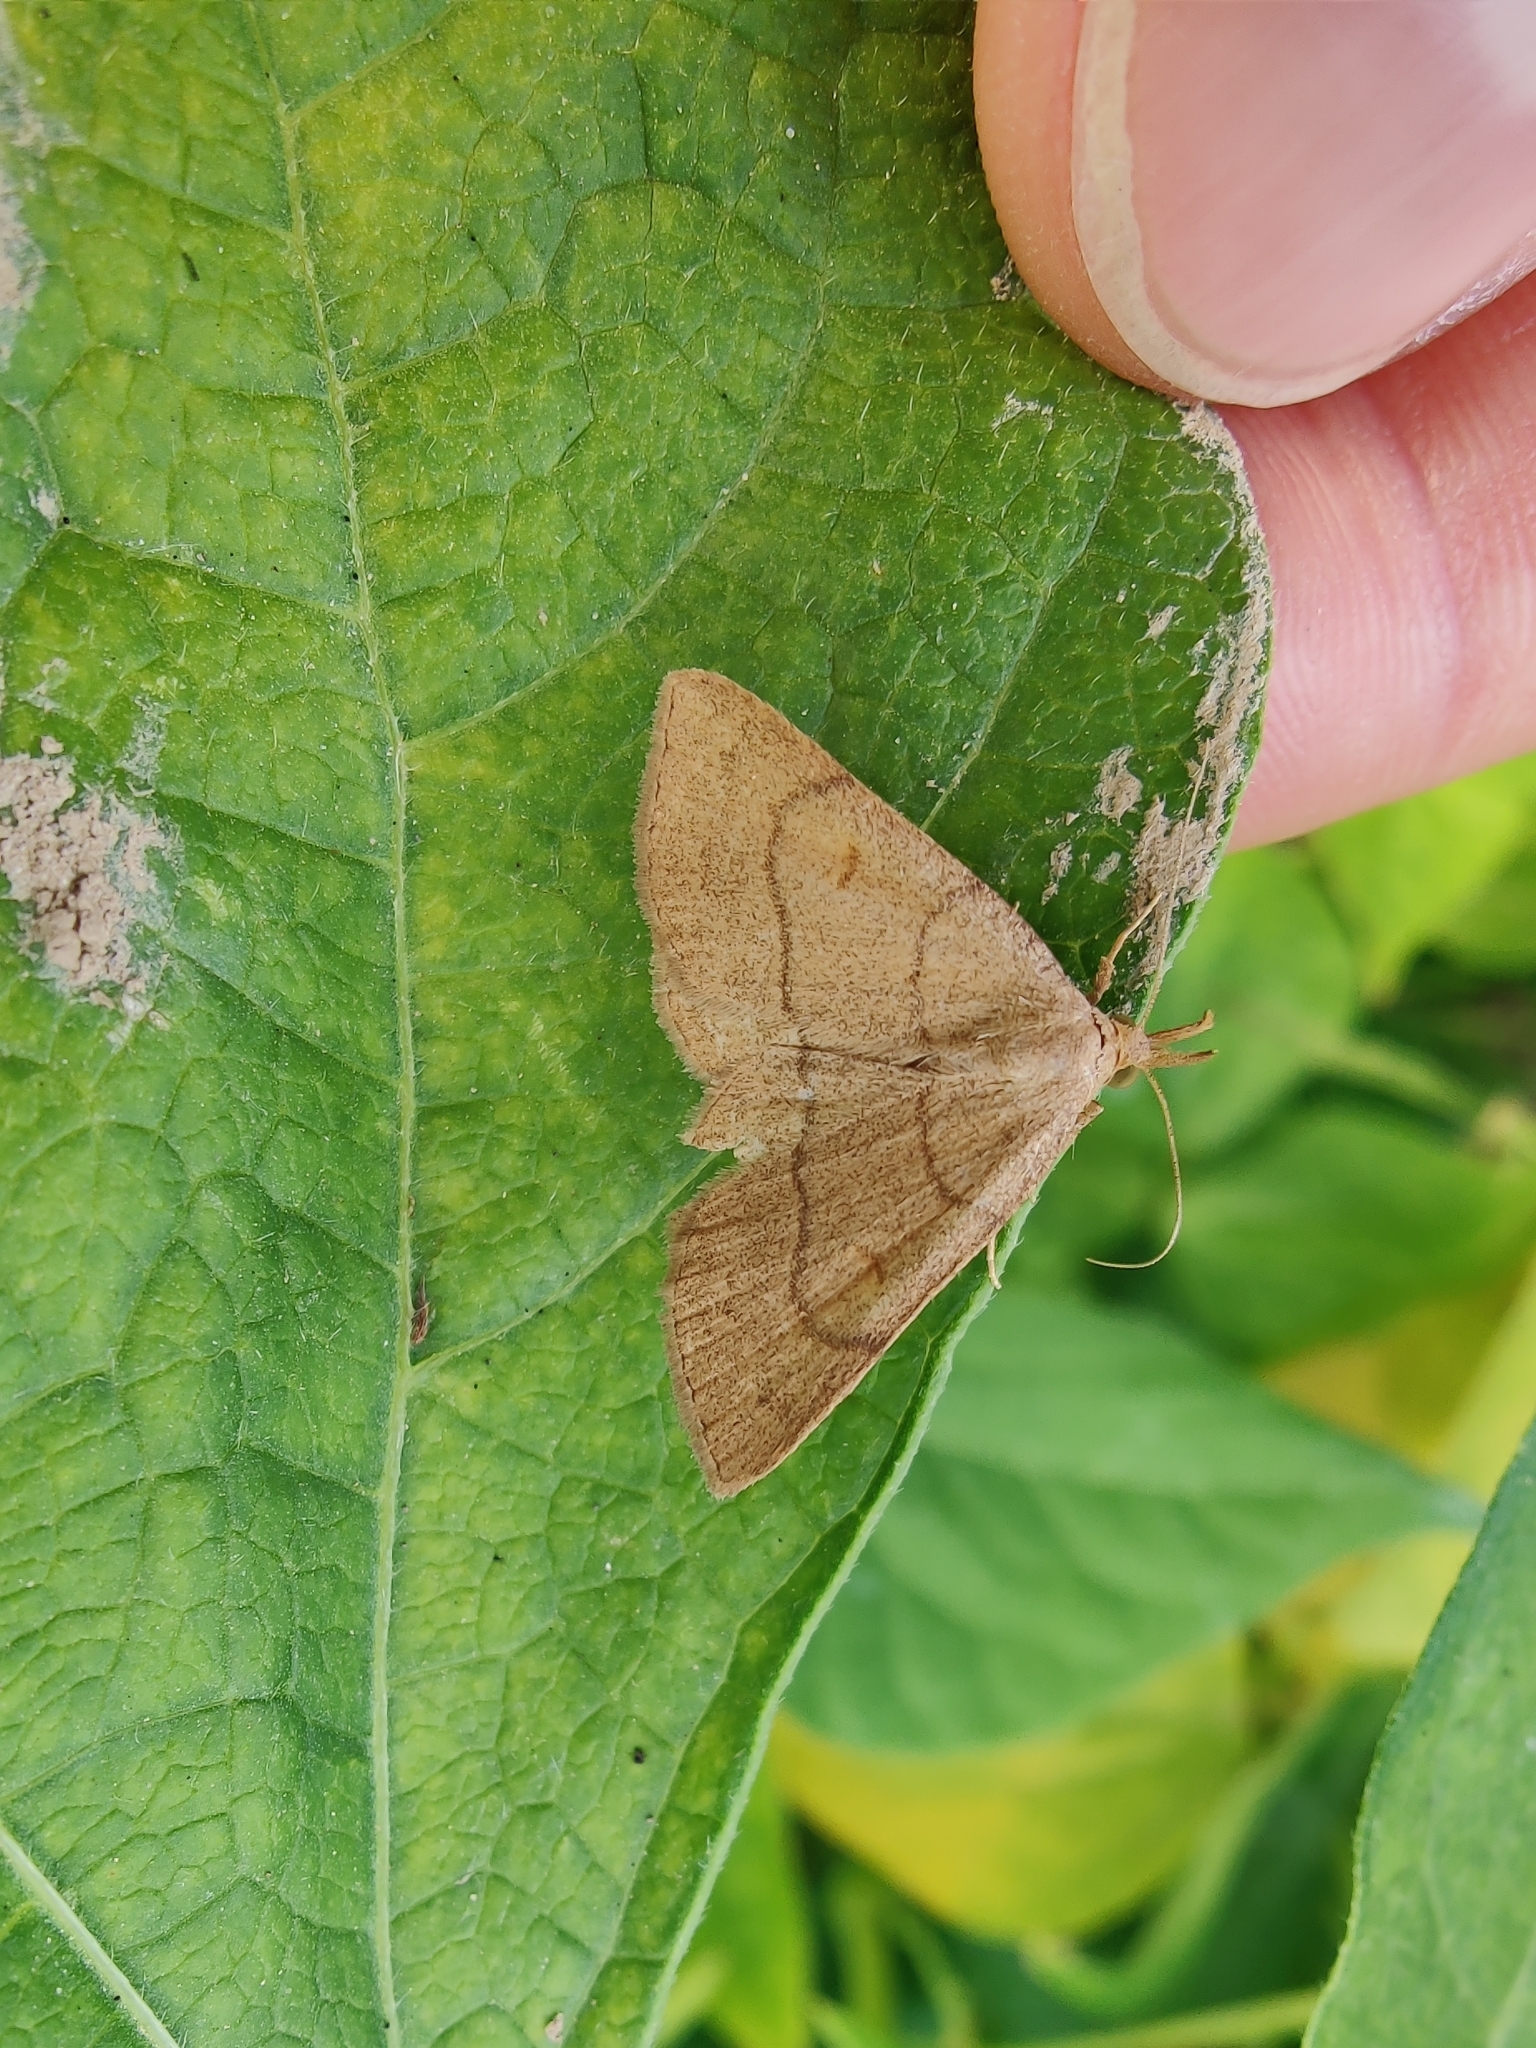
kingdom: Animalia
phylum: Arthropoda
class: Insecta
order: Lepidoptera
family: Erebidae
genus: Paracolax
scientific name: Paracolax tristalis
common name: Clay fan-foot
